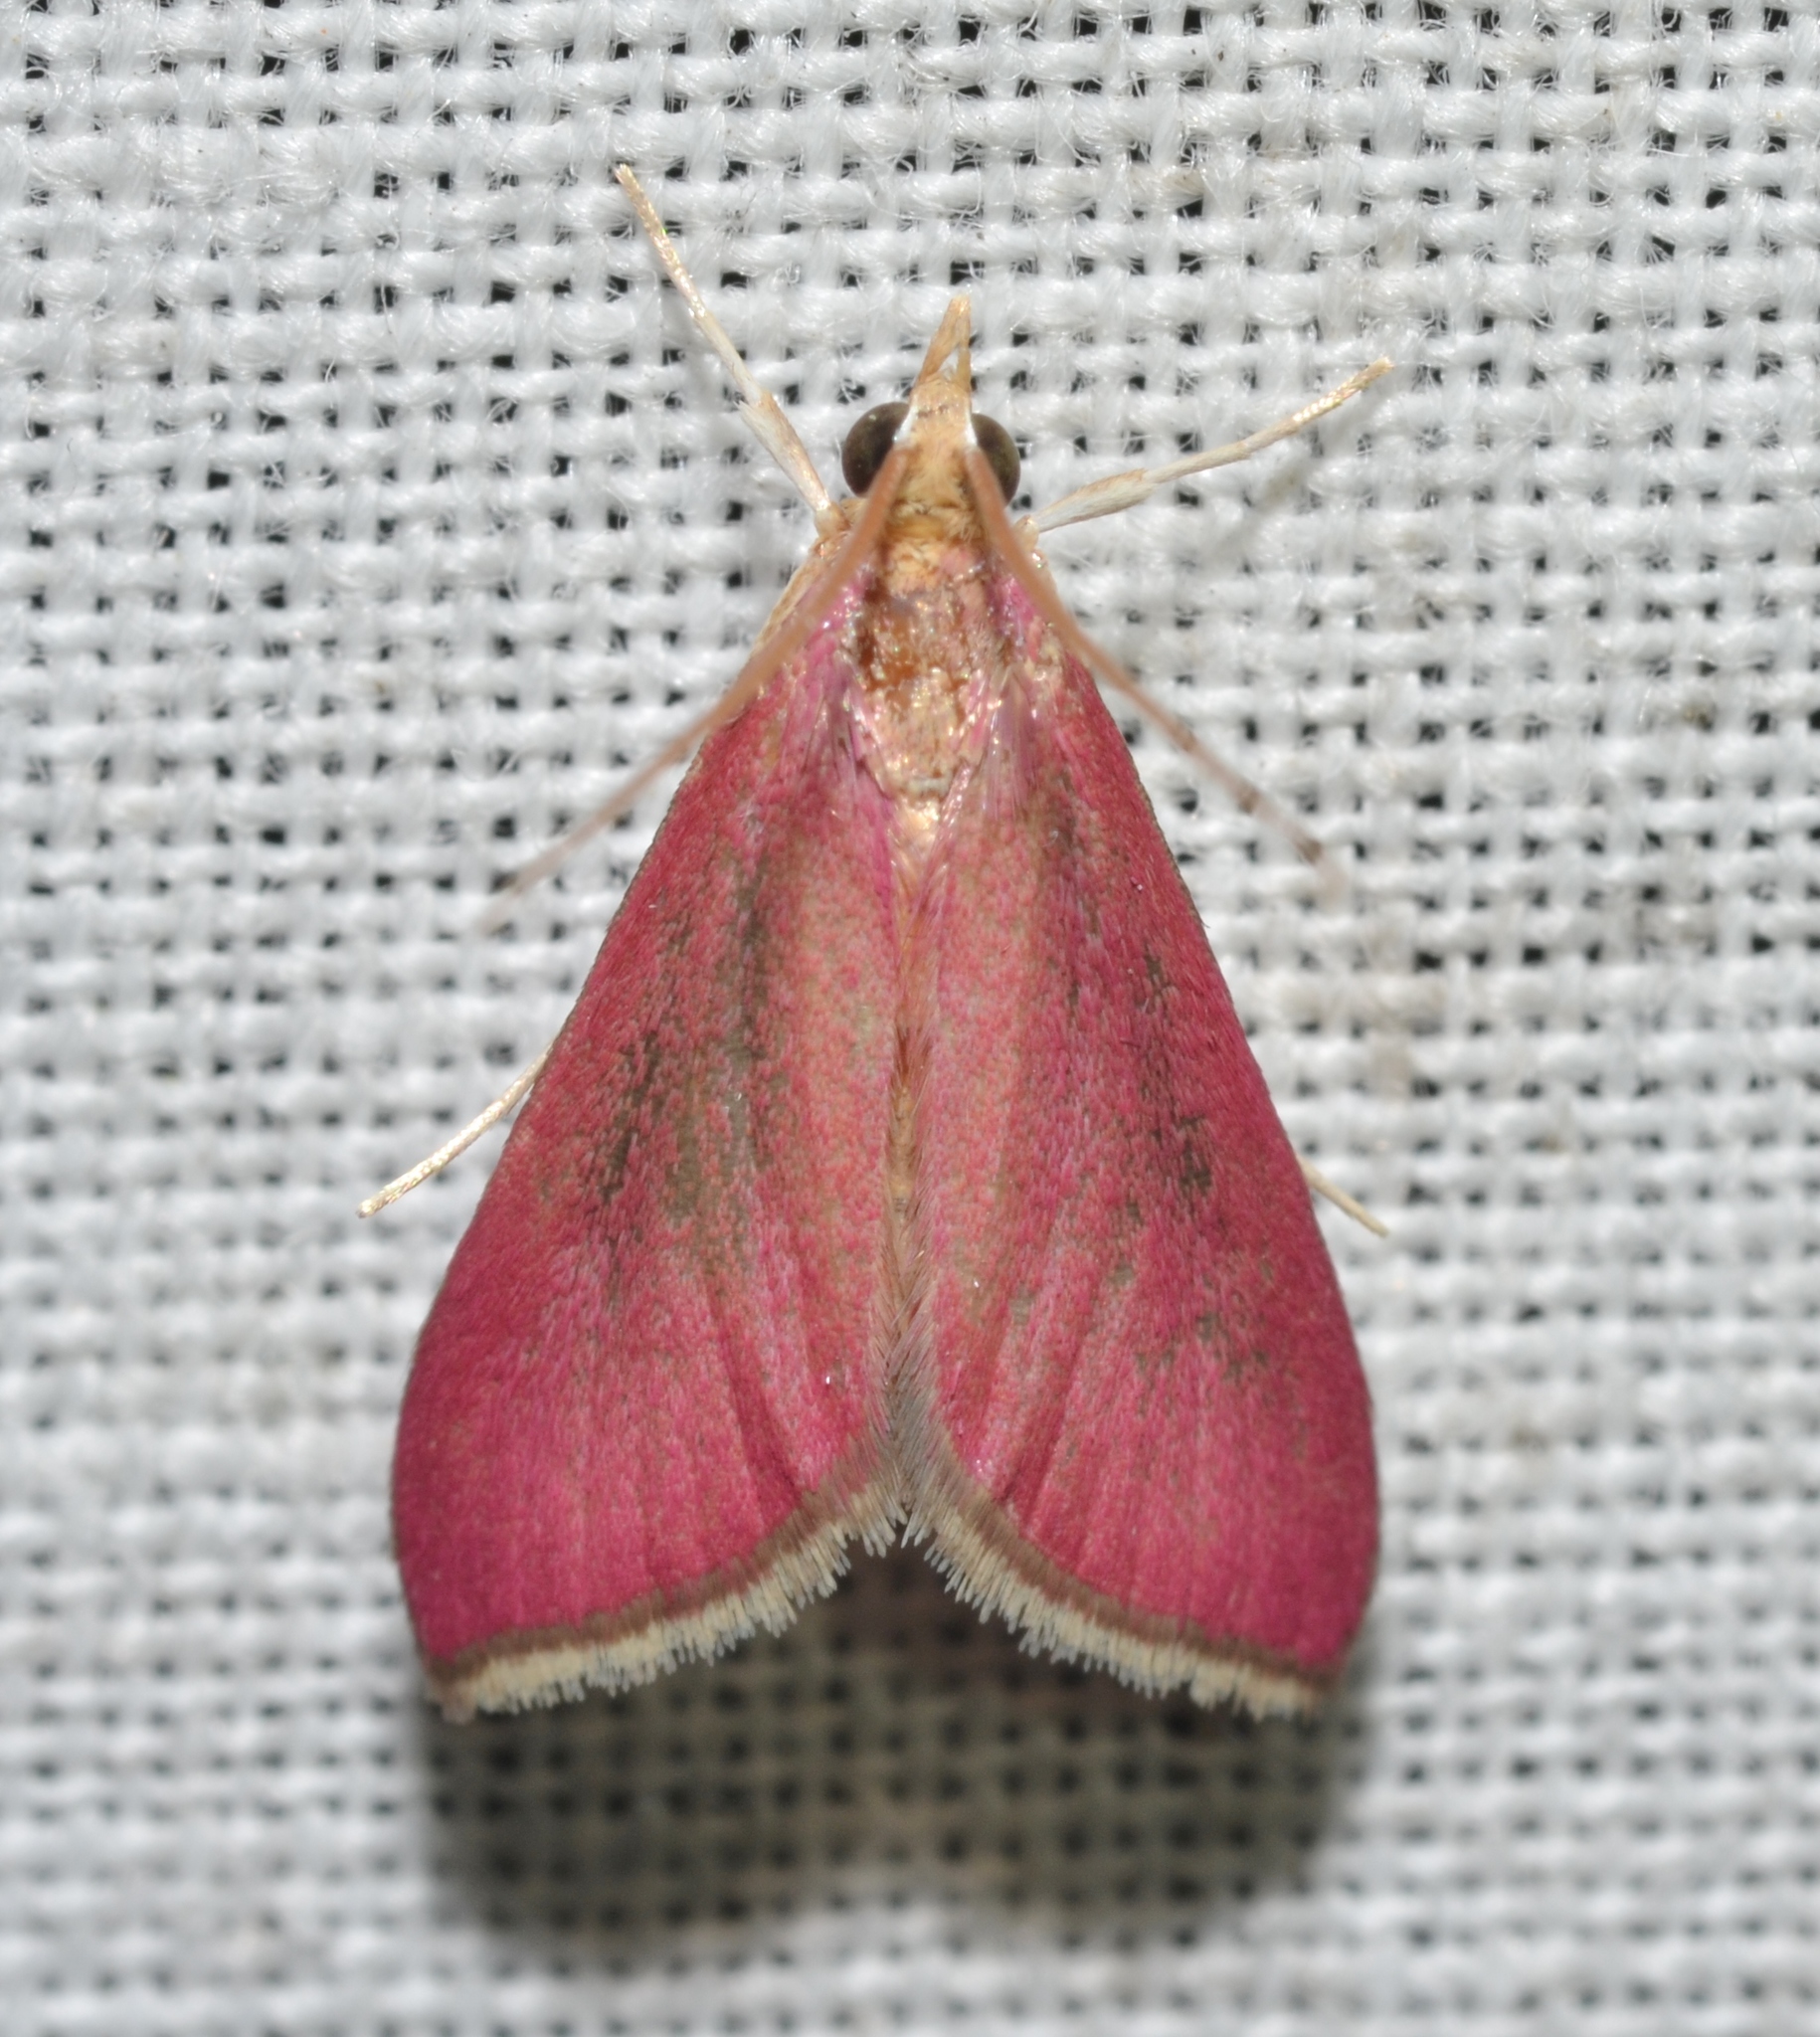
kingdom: Animalia
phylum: Arthropoda
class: Insecta
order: Lepidoptera
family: Crambidae
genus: Pyrausta
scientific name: Pyrausta inornatalis
